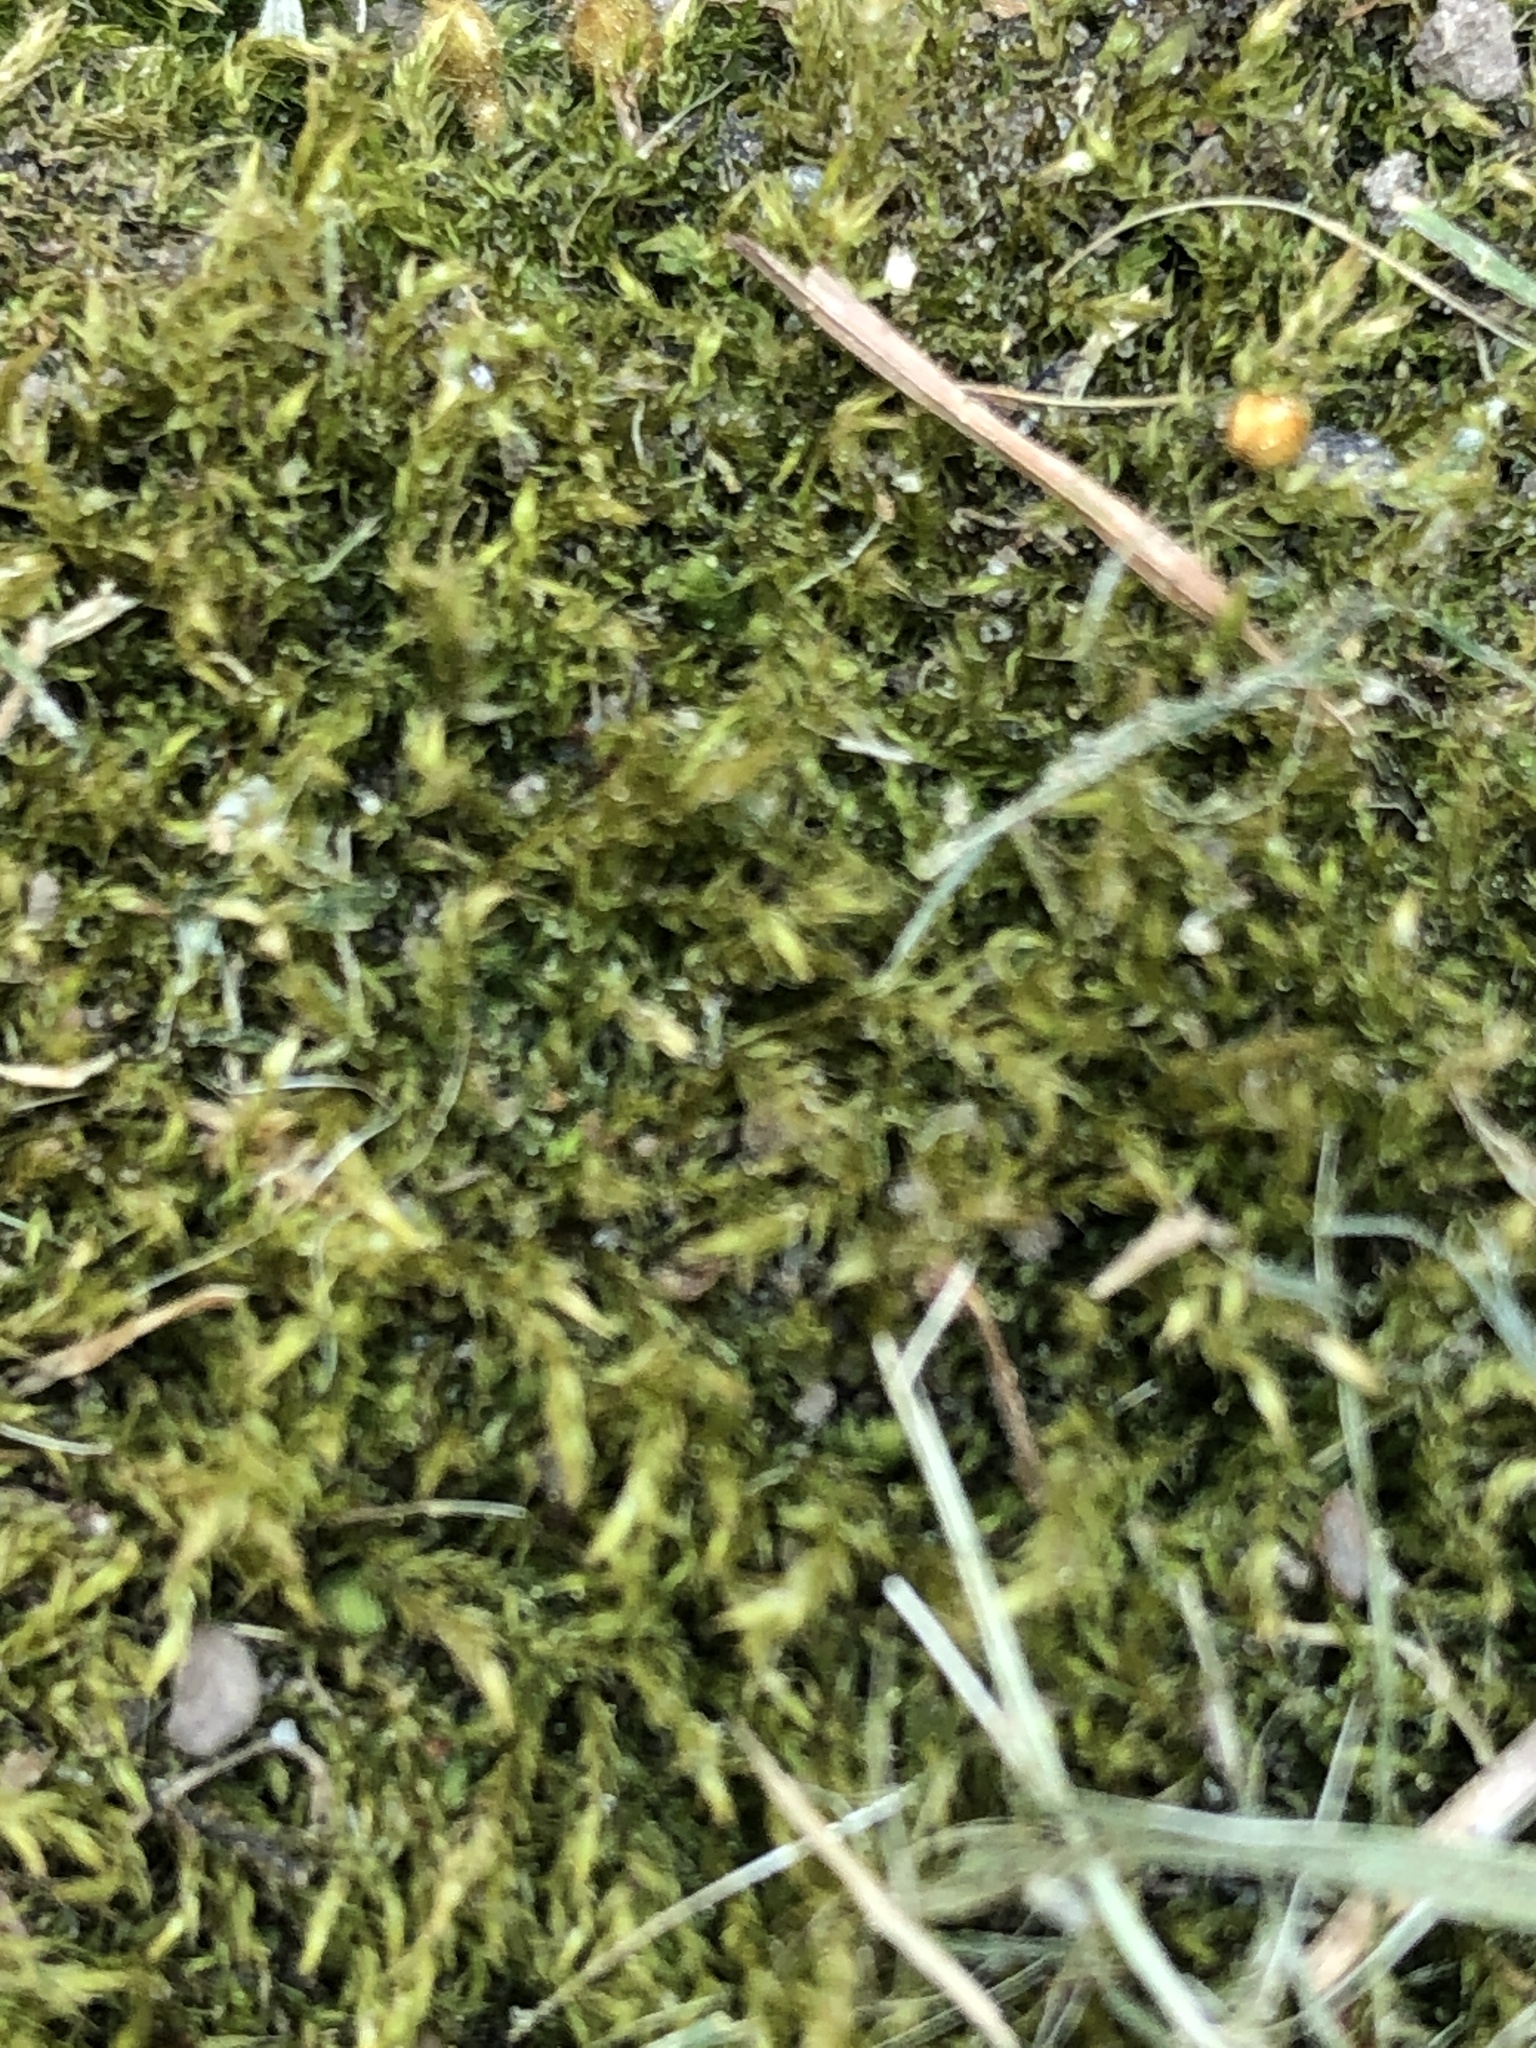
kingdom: Plantae
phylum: Bryophyta
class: Bryopsida
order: Hypnales
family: Callicladiaceae
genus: Callicladium
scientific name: Callicladium haldanianum
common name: Beautiful branch moss
